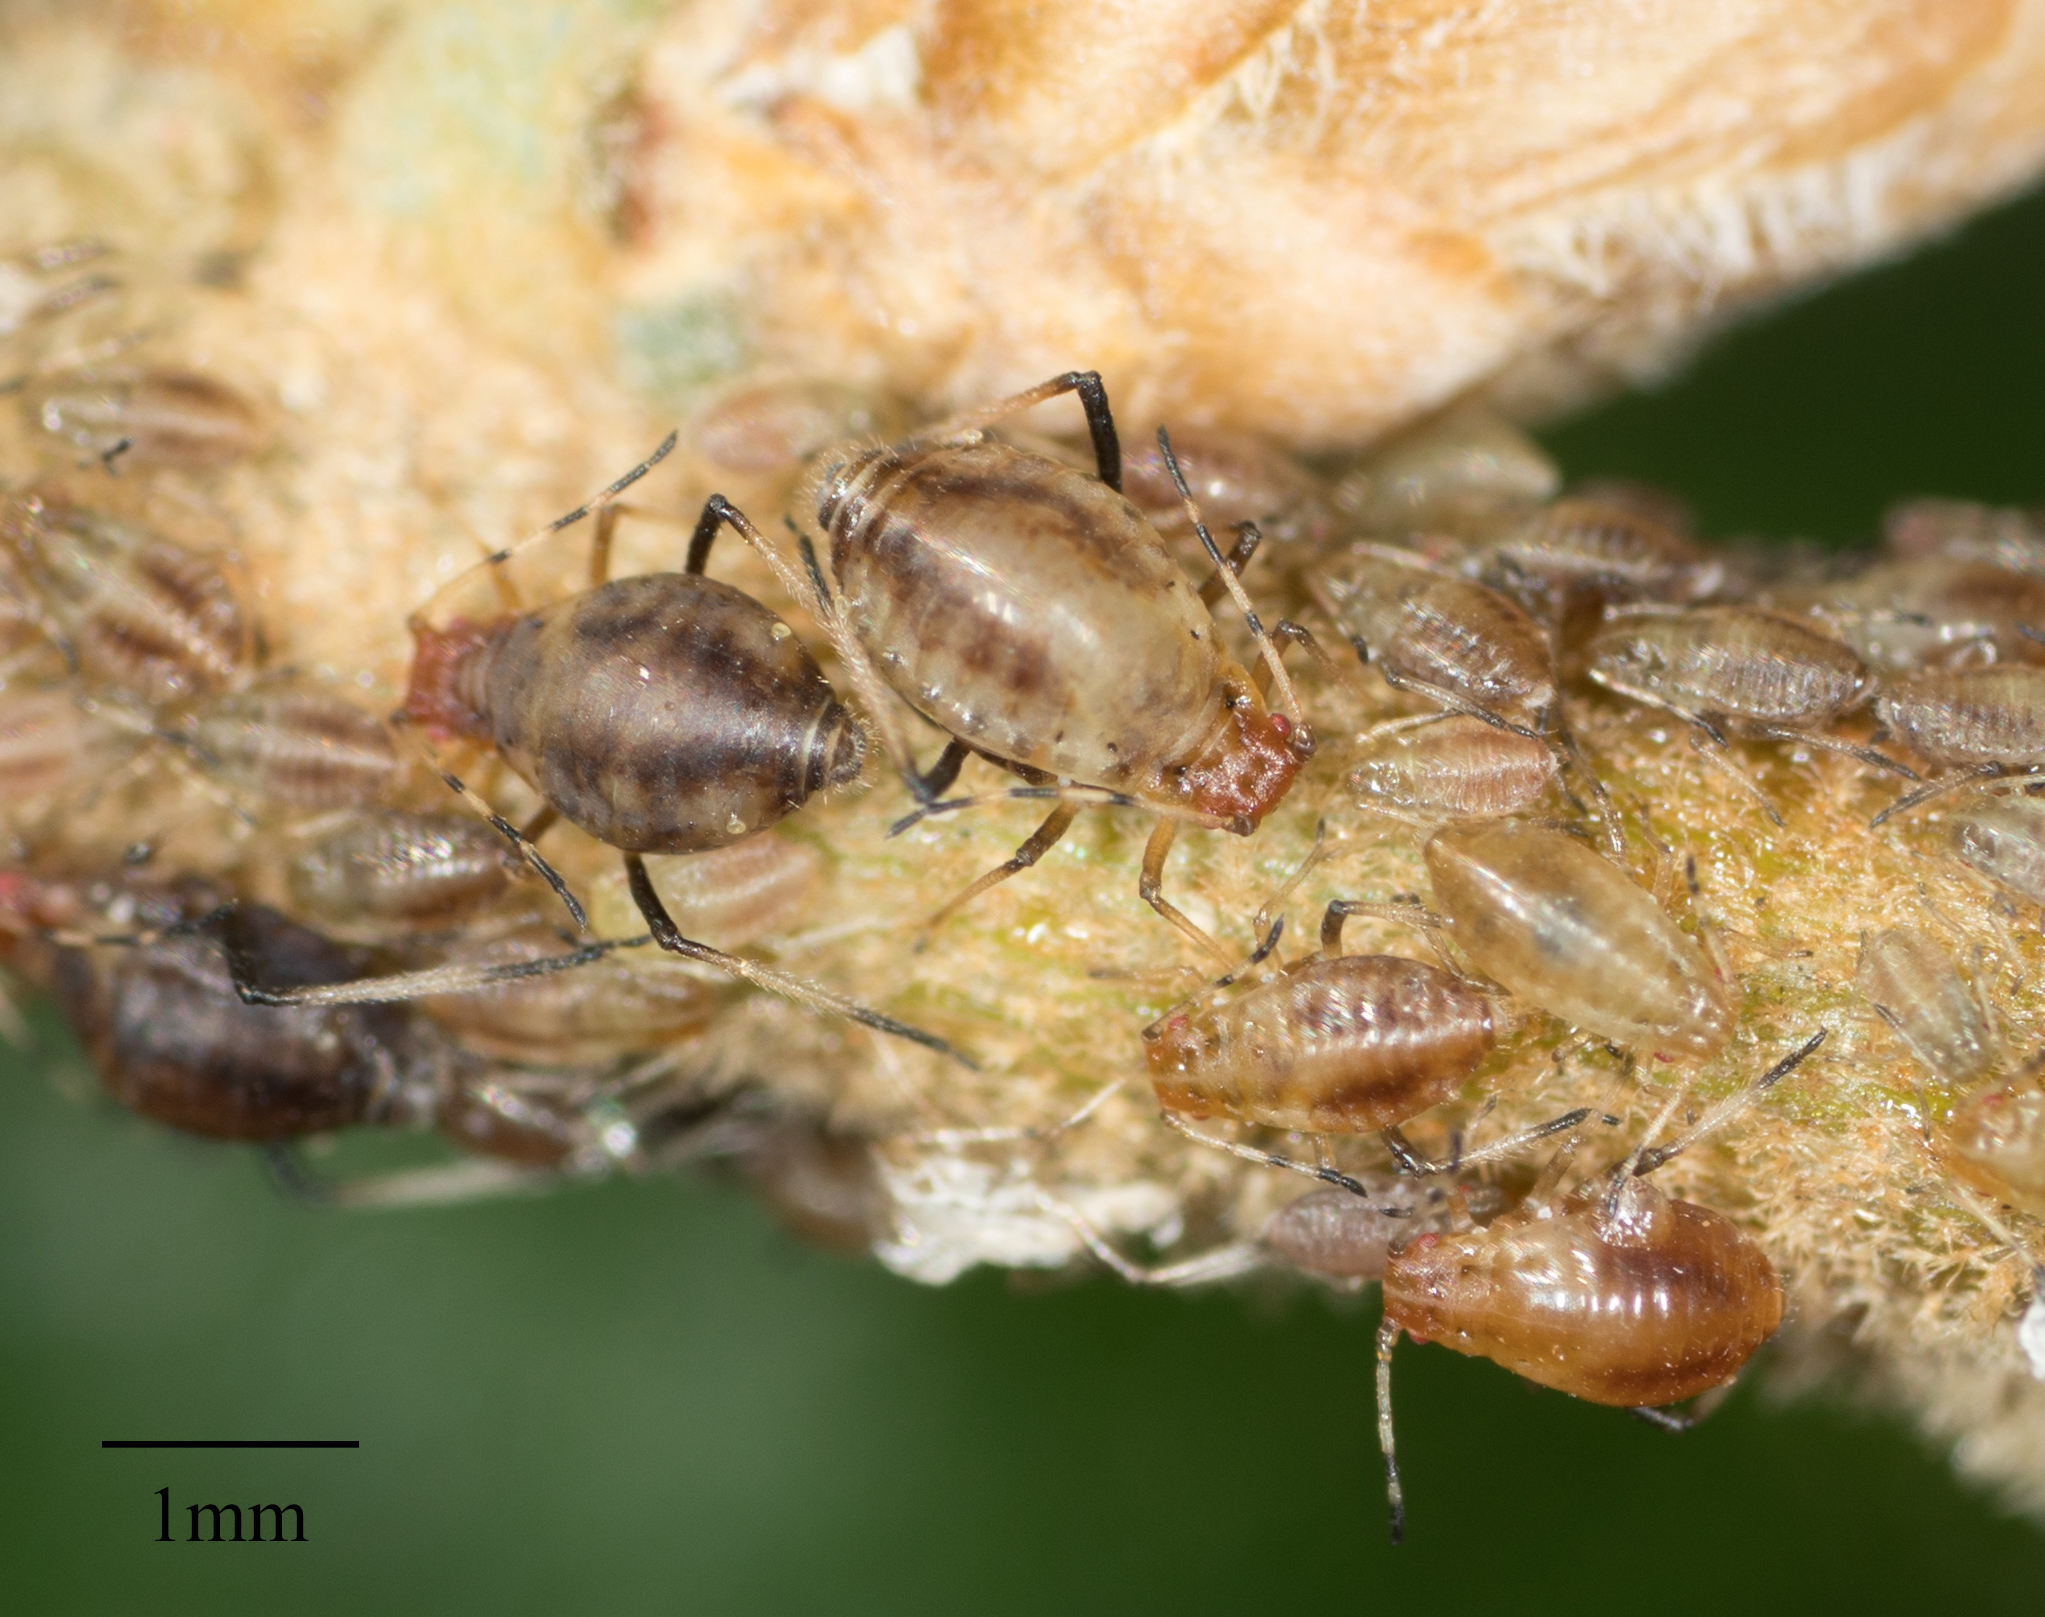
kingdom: Animalia
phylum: Arthropoda
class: Insecta
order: Hemiptera
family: Aphididae
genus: Neosymydobius
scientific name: Neosymydobius paucisetosus
